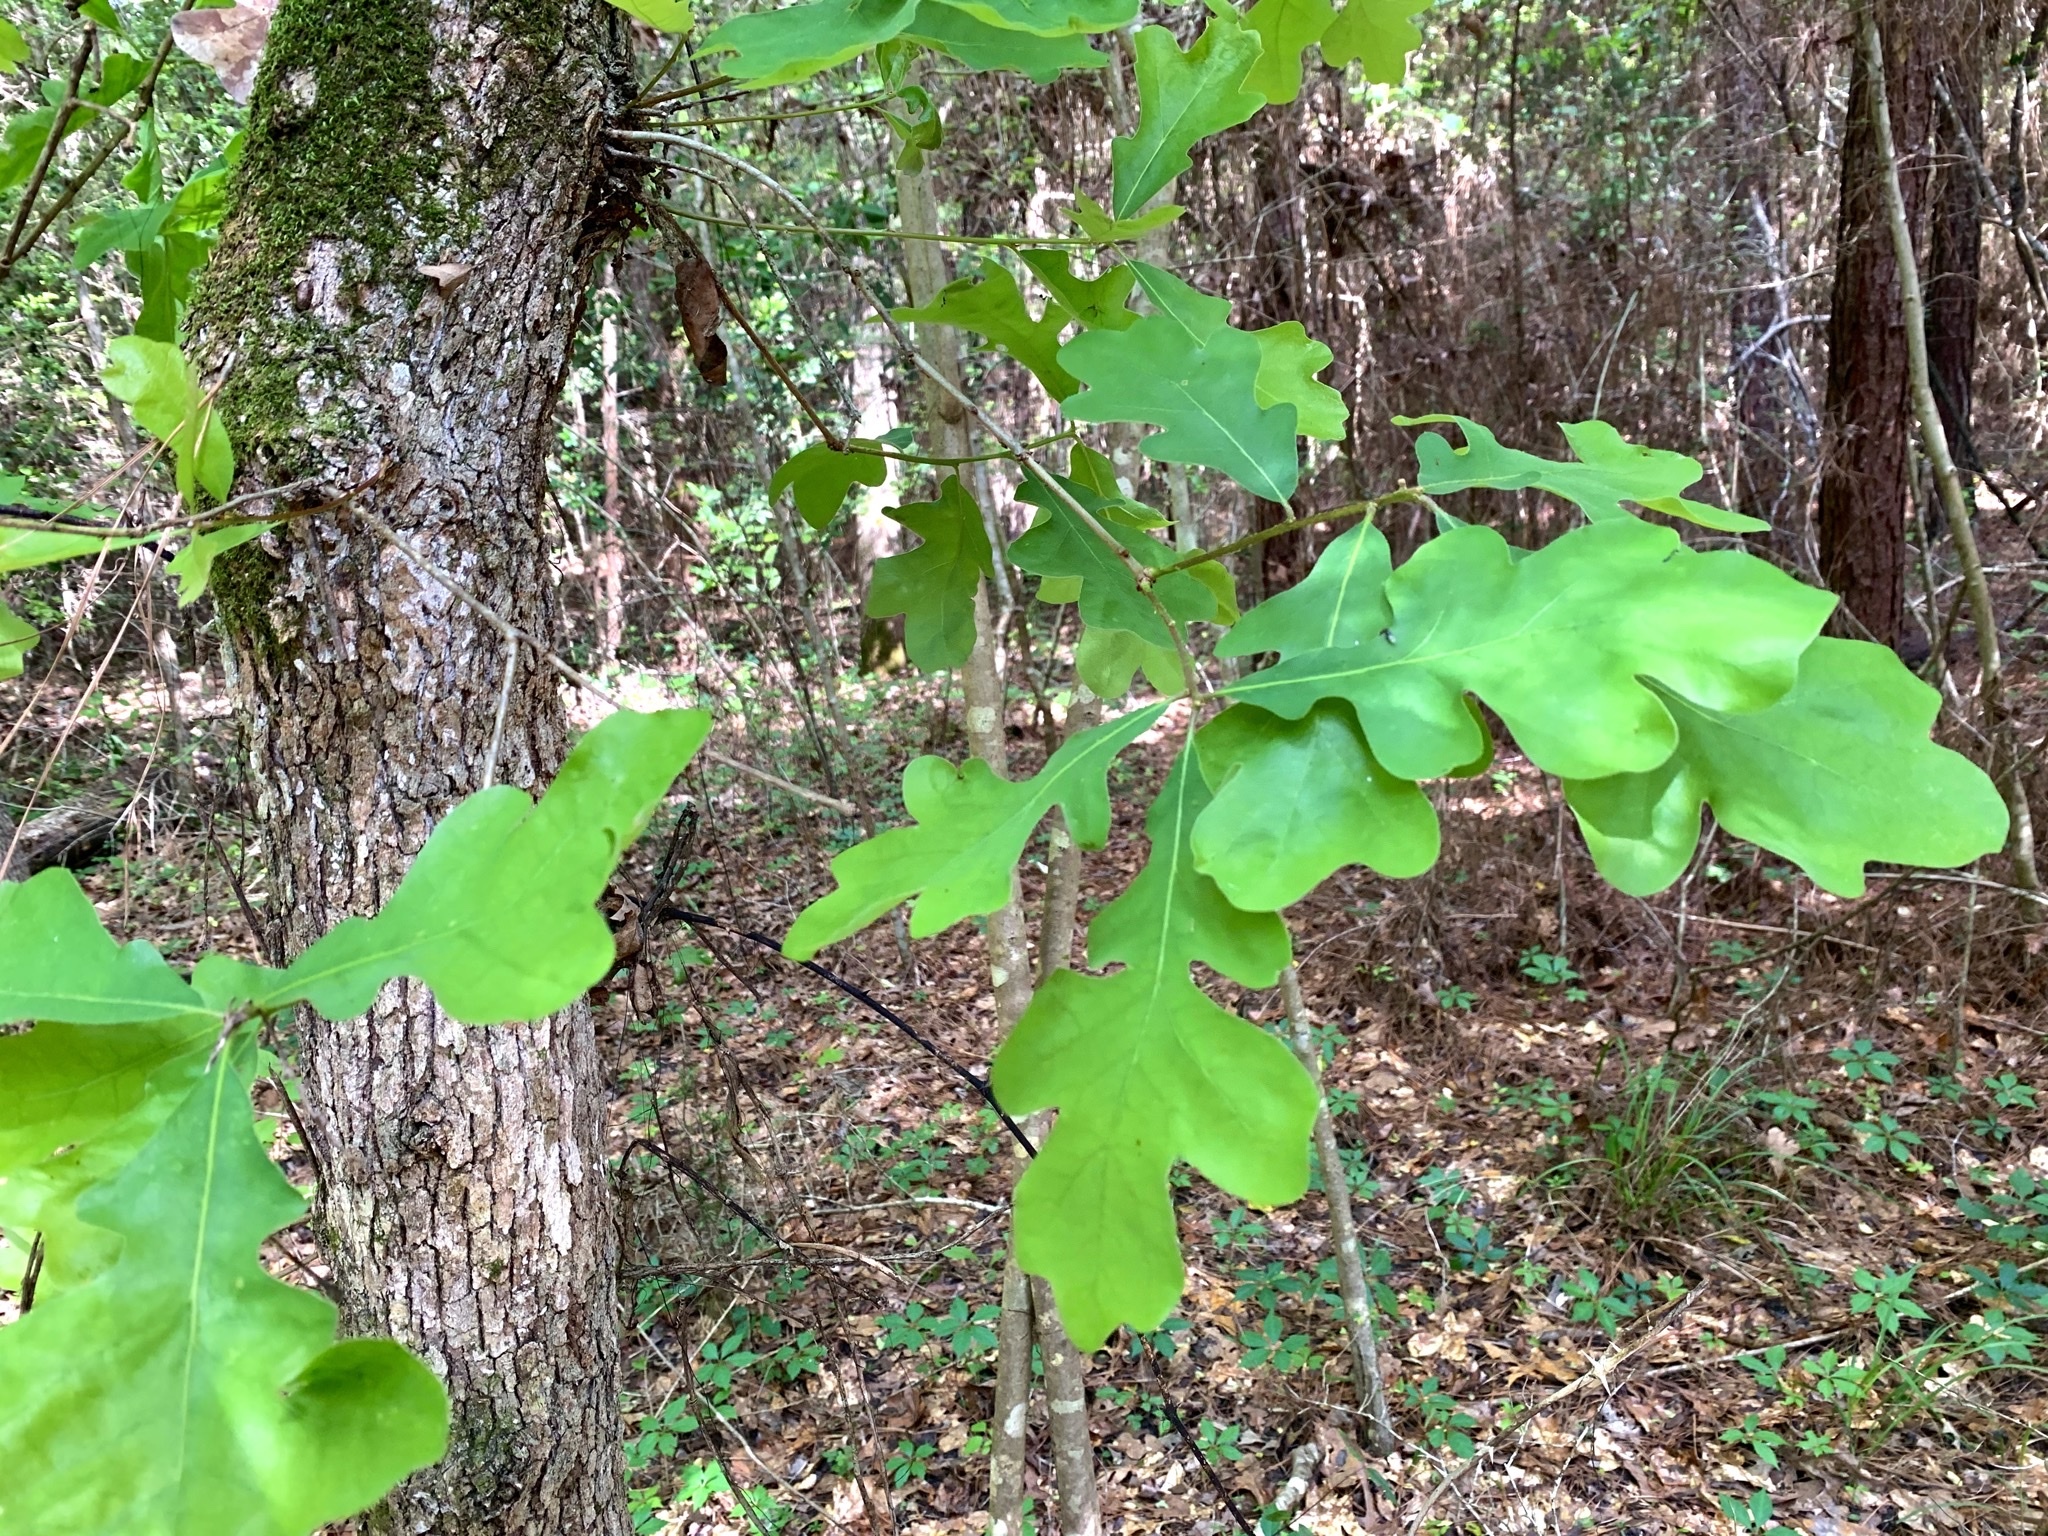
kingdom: Plantae
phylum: Tracheophyta
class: Magnoliopsida
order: Fagales
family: Fagaceae
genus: Quercus
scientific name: Quercus stellata
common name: Post oak
